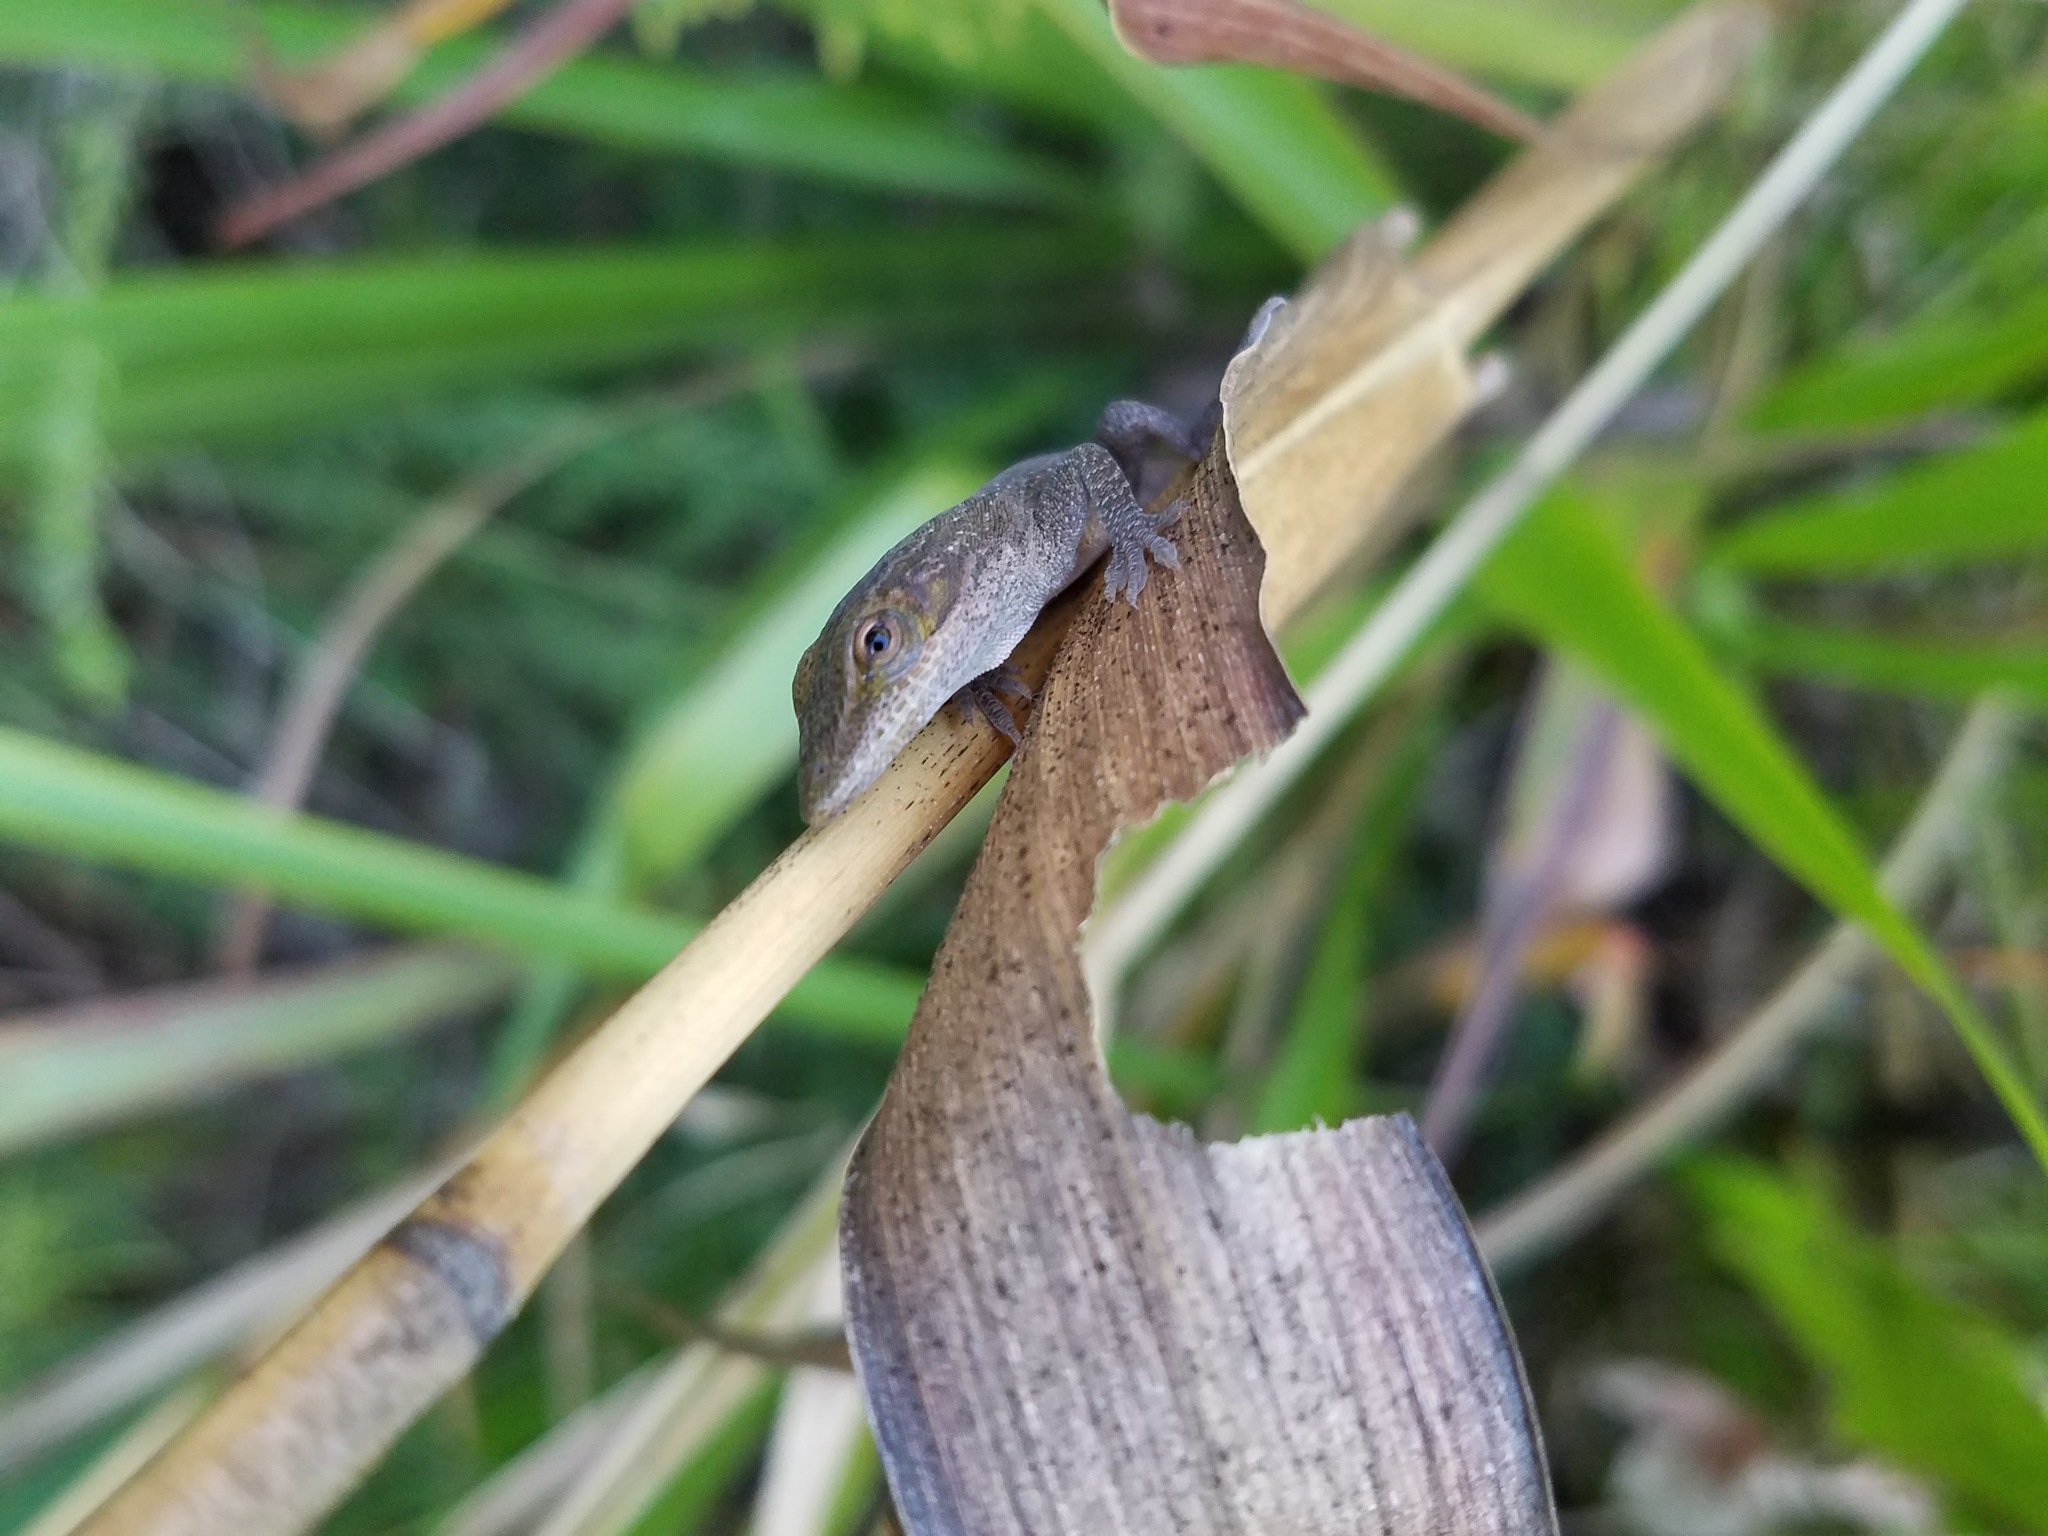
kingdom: Animalia
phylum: Chordata
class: Squamata
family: Dactyloidae
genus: Anolis
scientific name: Anolis carolinensis
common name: Green anole
